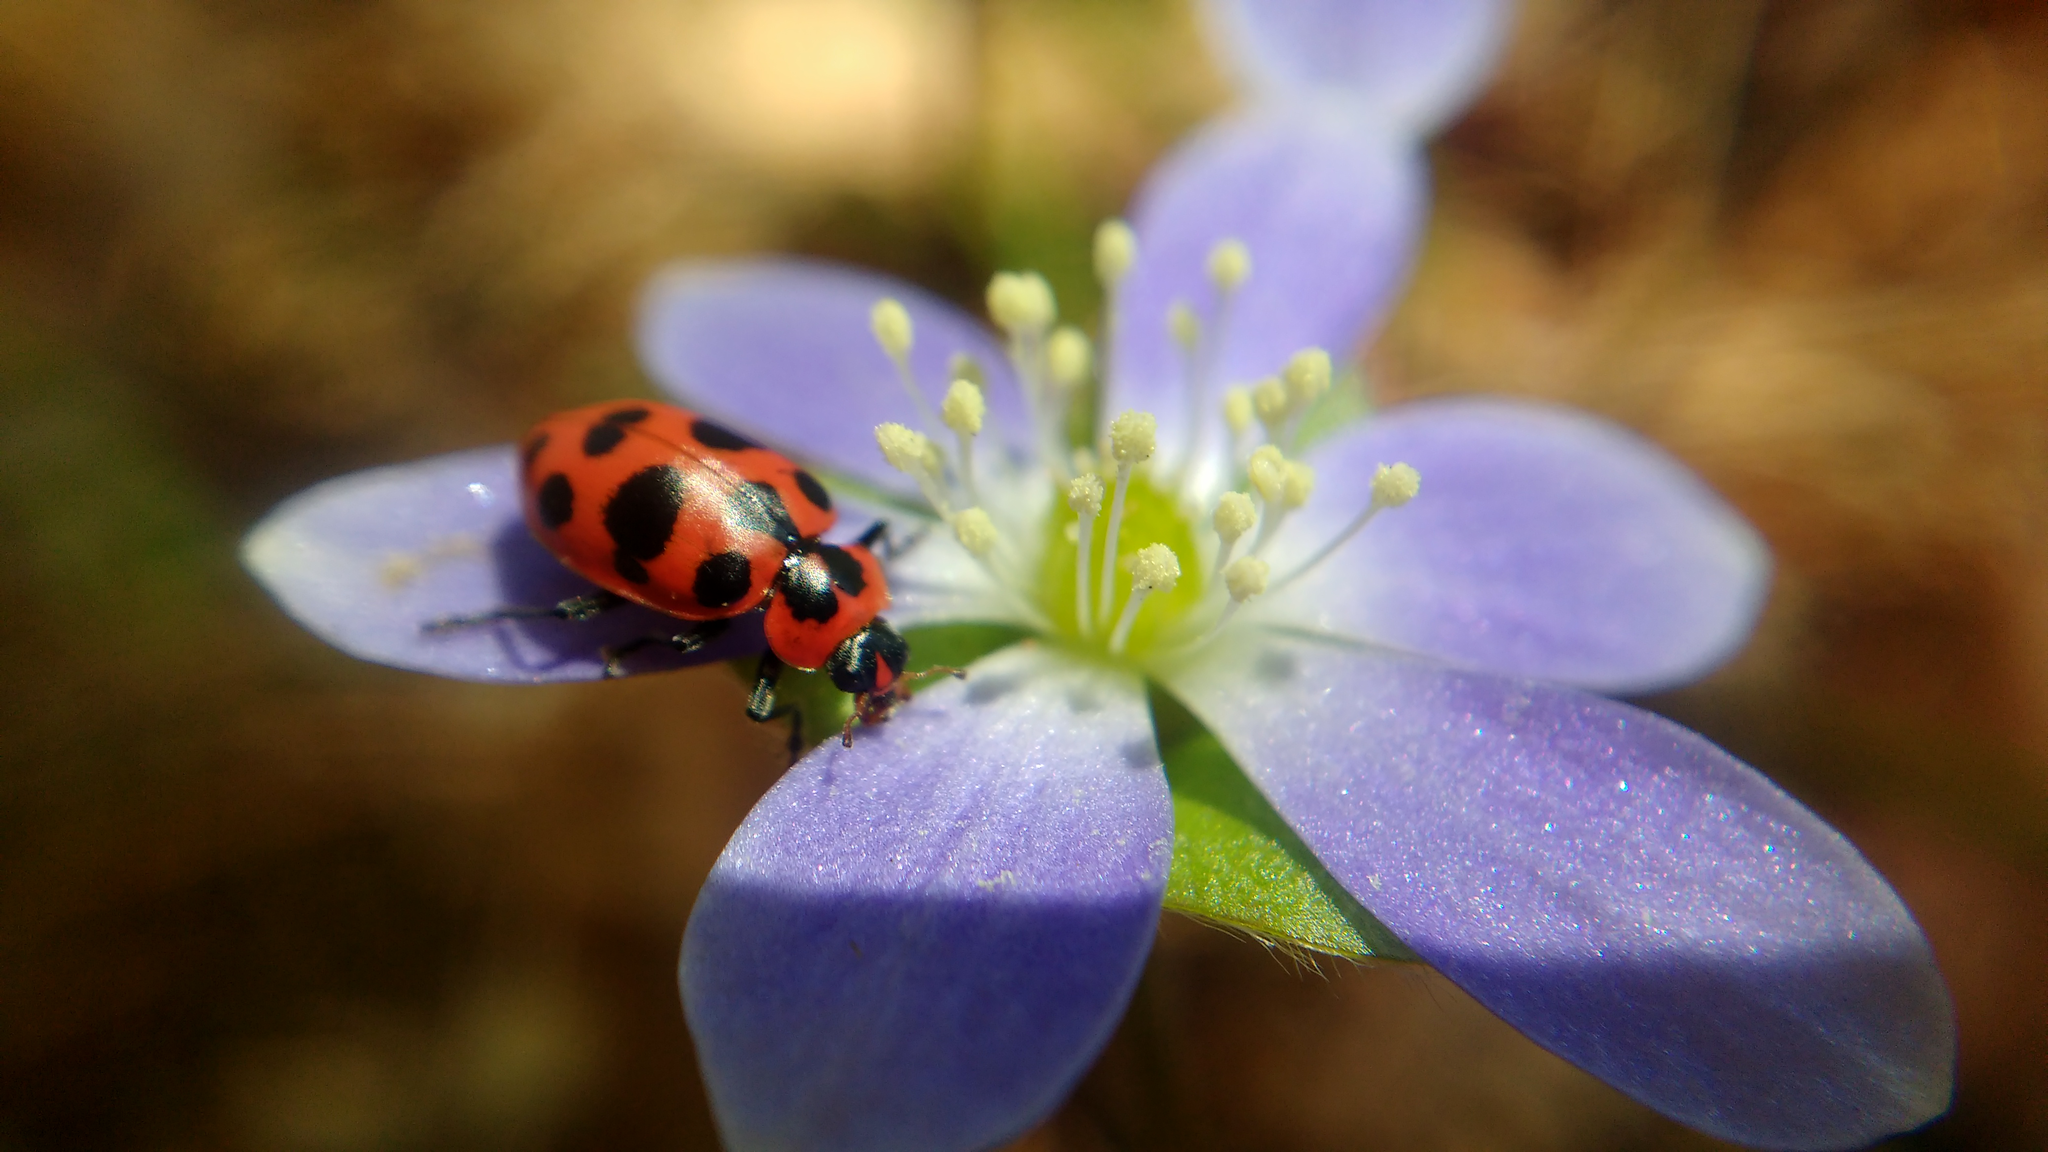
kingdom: Animalia
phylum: Arthropoda
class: Insecta
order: Coleoptera
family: Coccinellidae
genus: Coleomegilla
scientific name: Coleomegilla maculata
